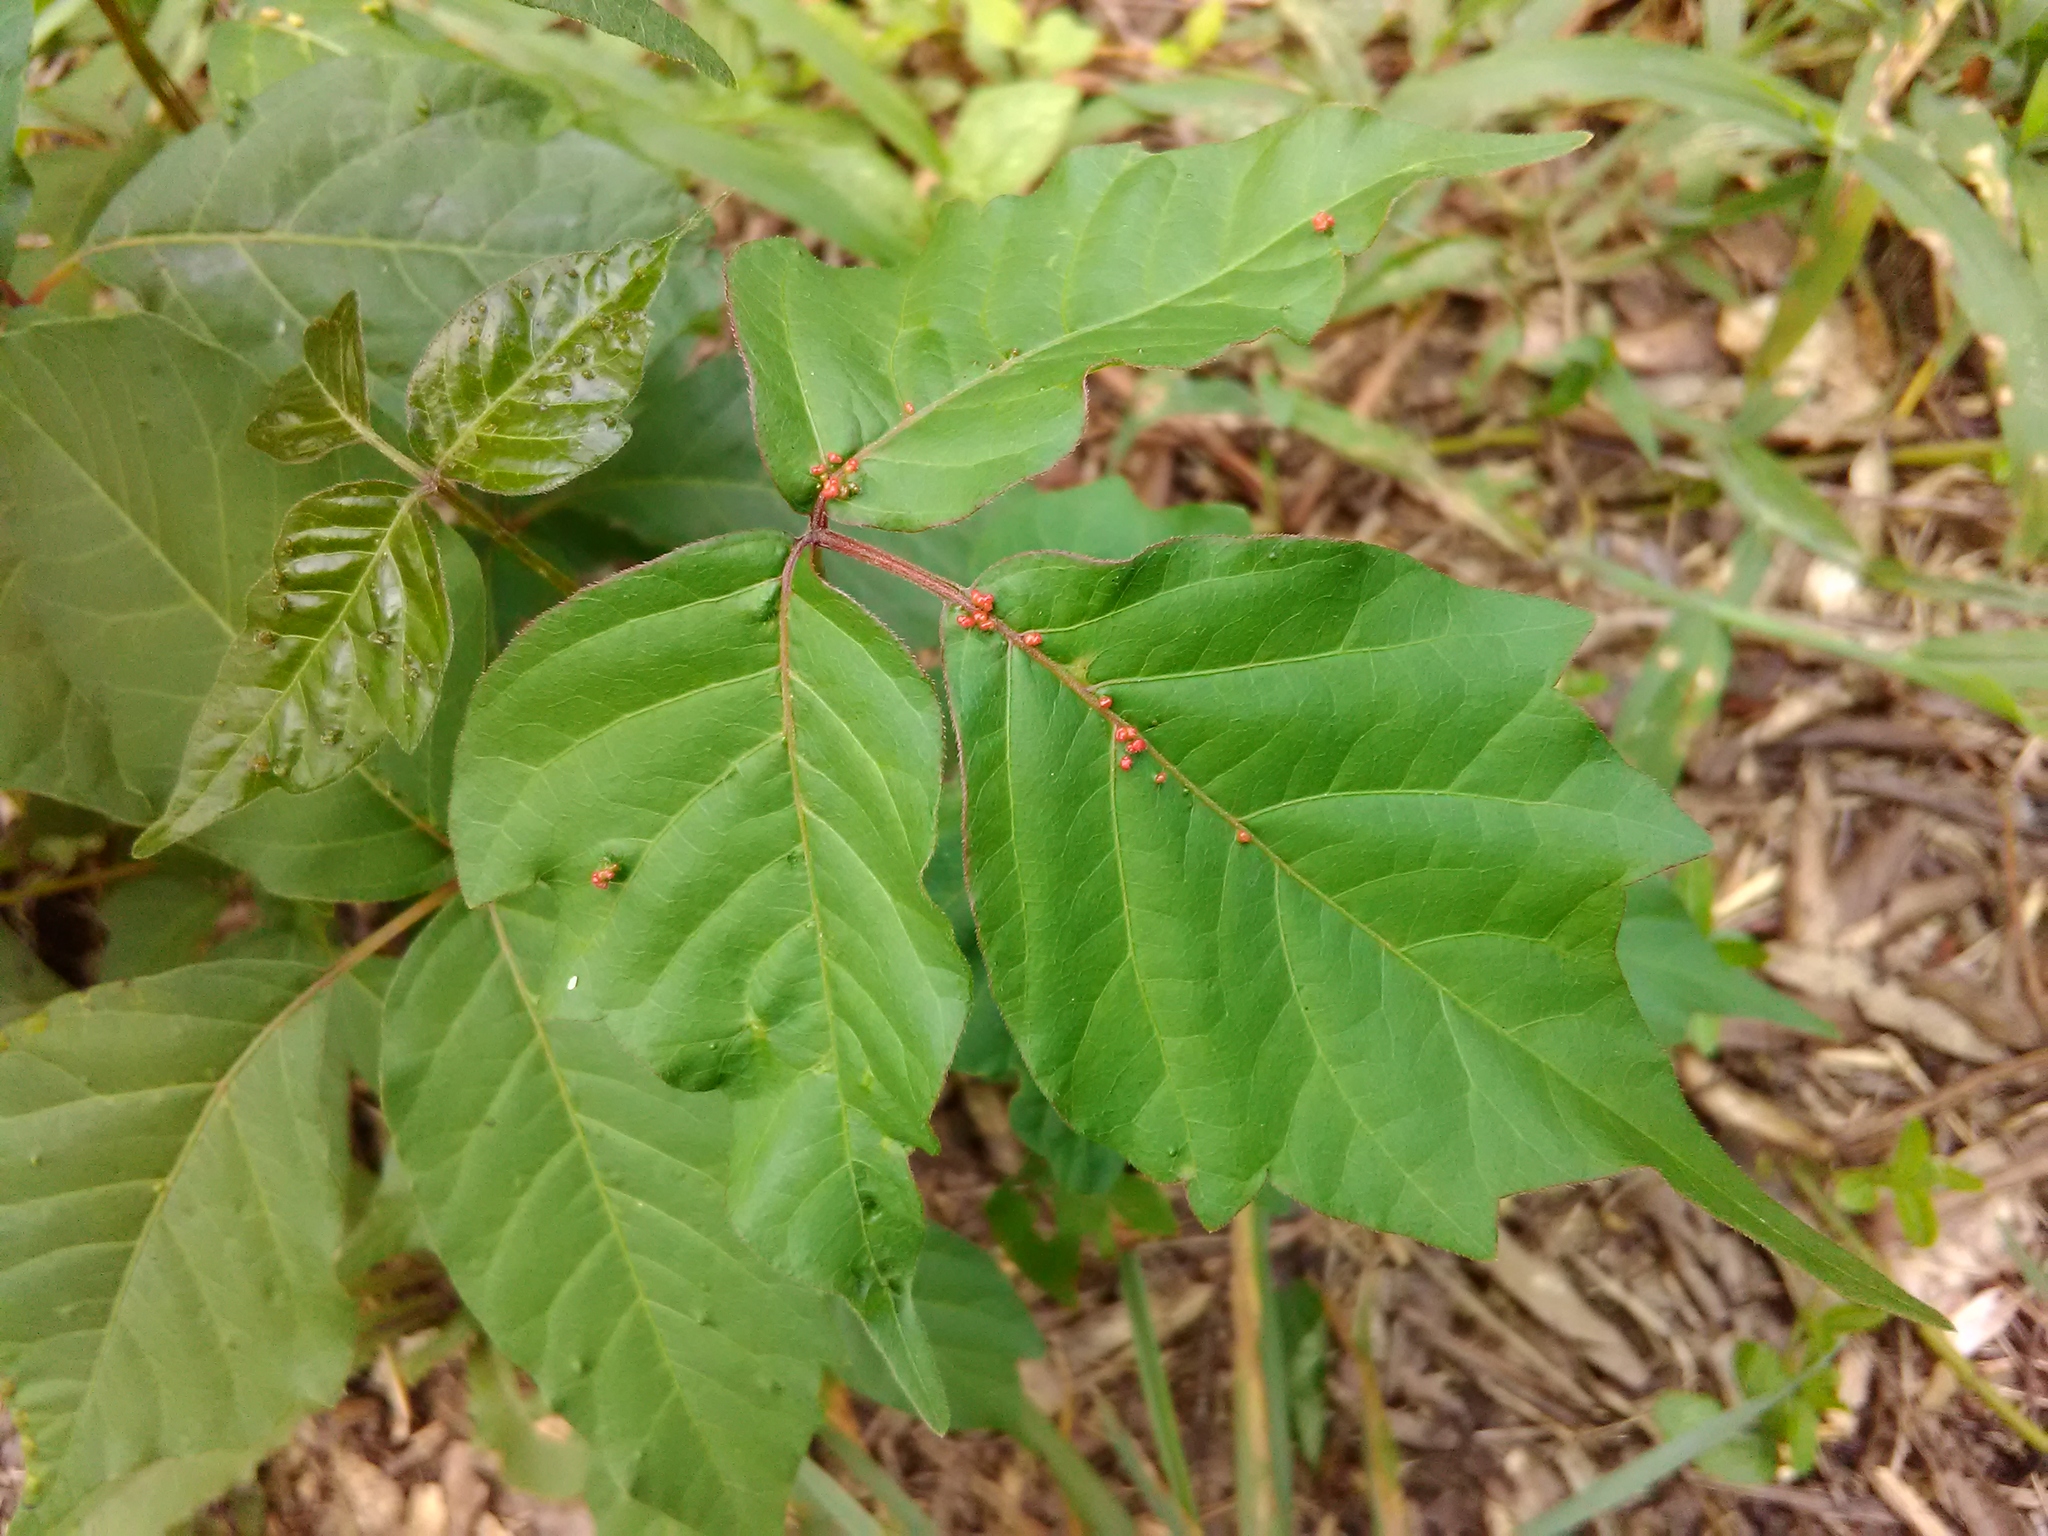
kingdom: Animalia
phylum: Arthropoda
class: Arachnida
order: Trombidiformes
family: Eriophyidae
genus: Aculops
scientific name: Aculops
